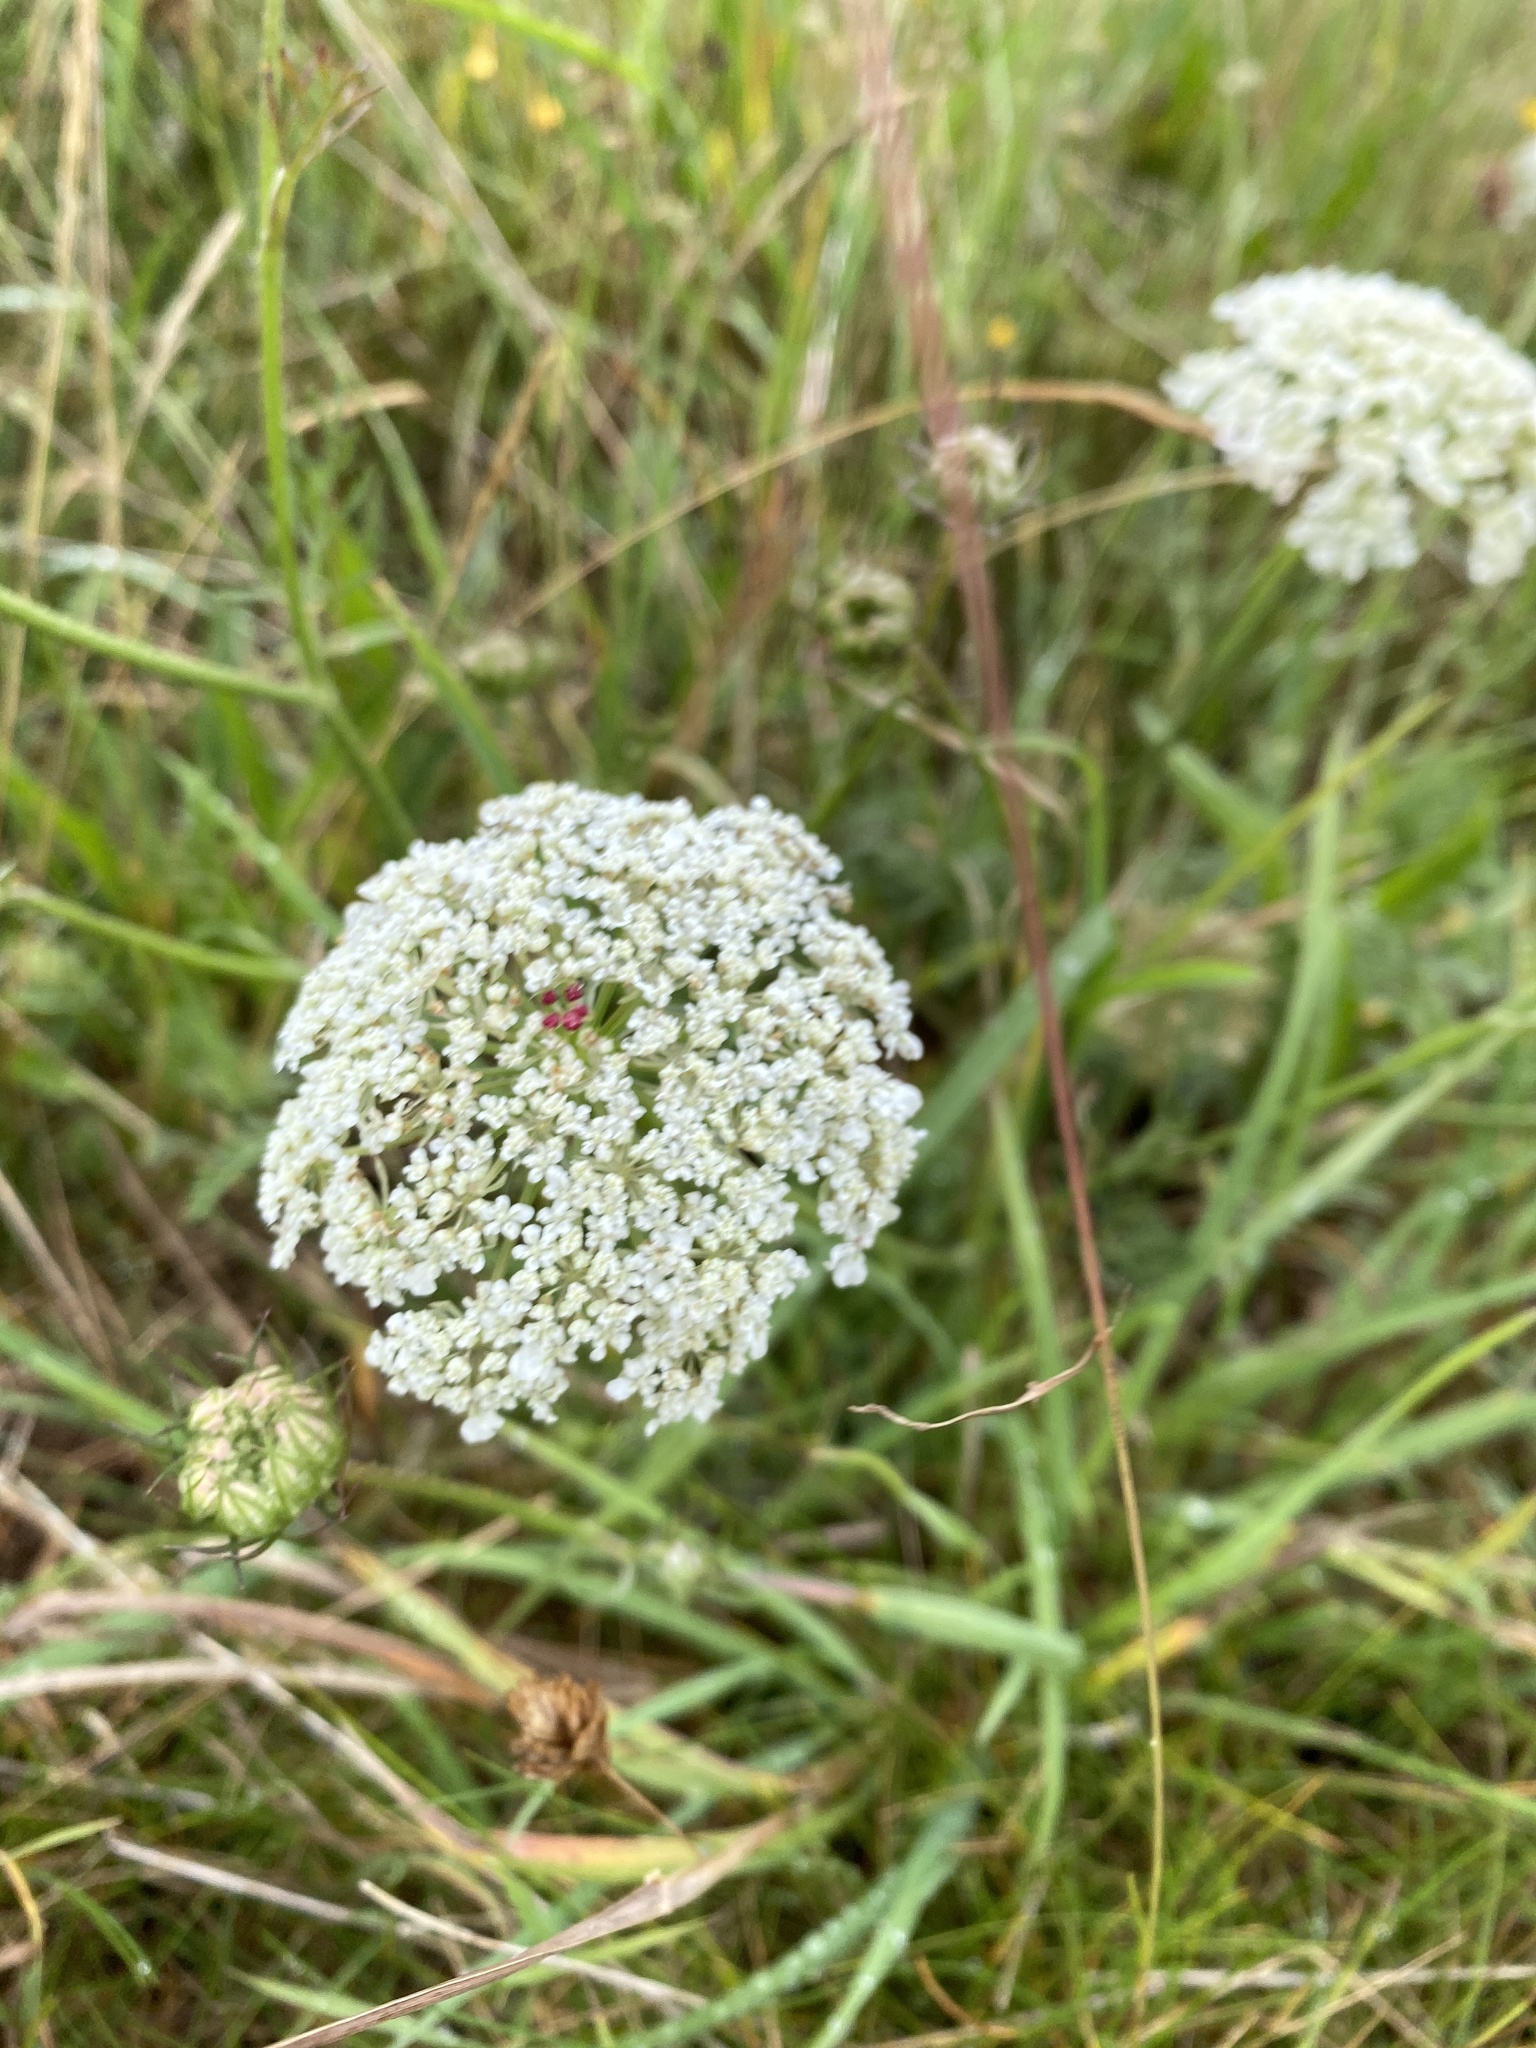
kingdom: Plantae
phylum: Tracheophyta
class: Magnoliopsida
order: Apiales
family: Apiaceae
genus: Daucus
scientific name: Daucus carota
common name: Wild carrot
